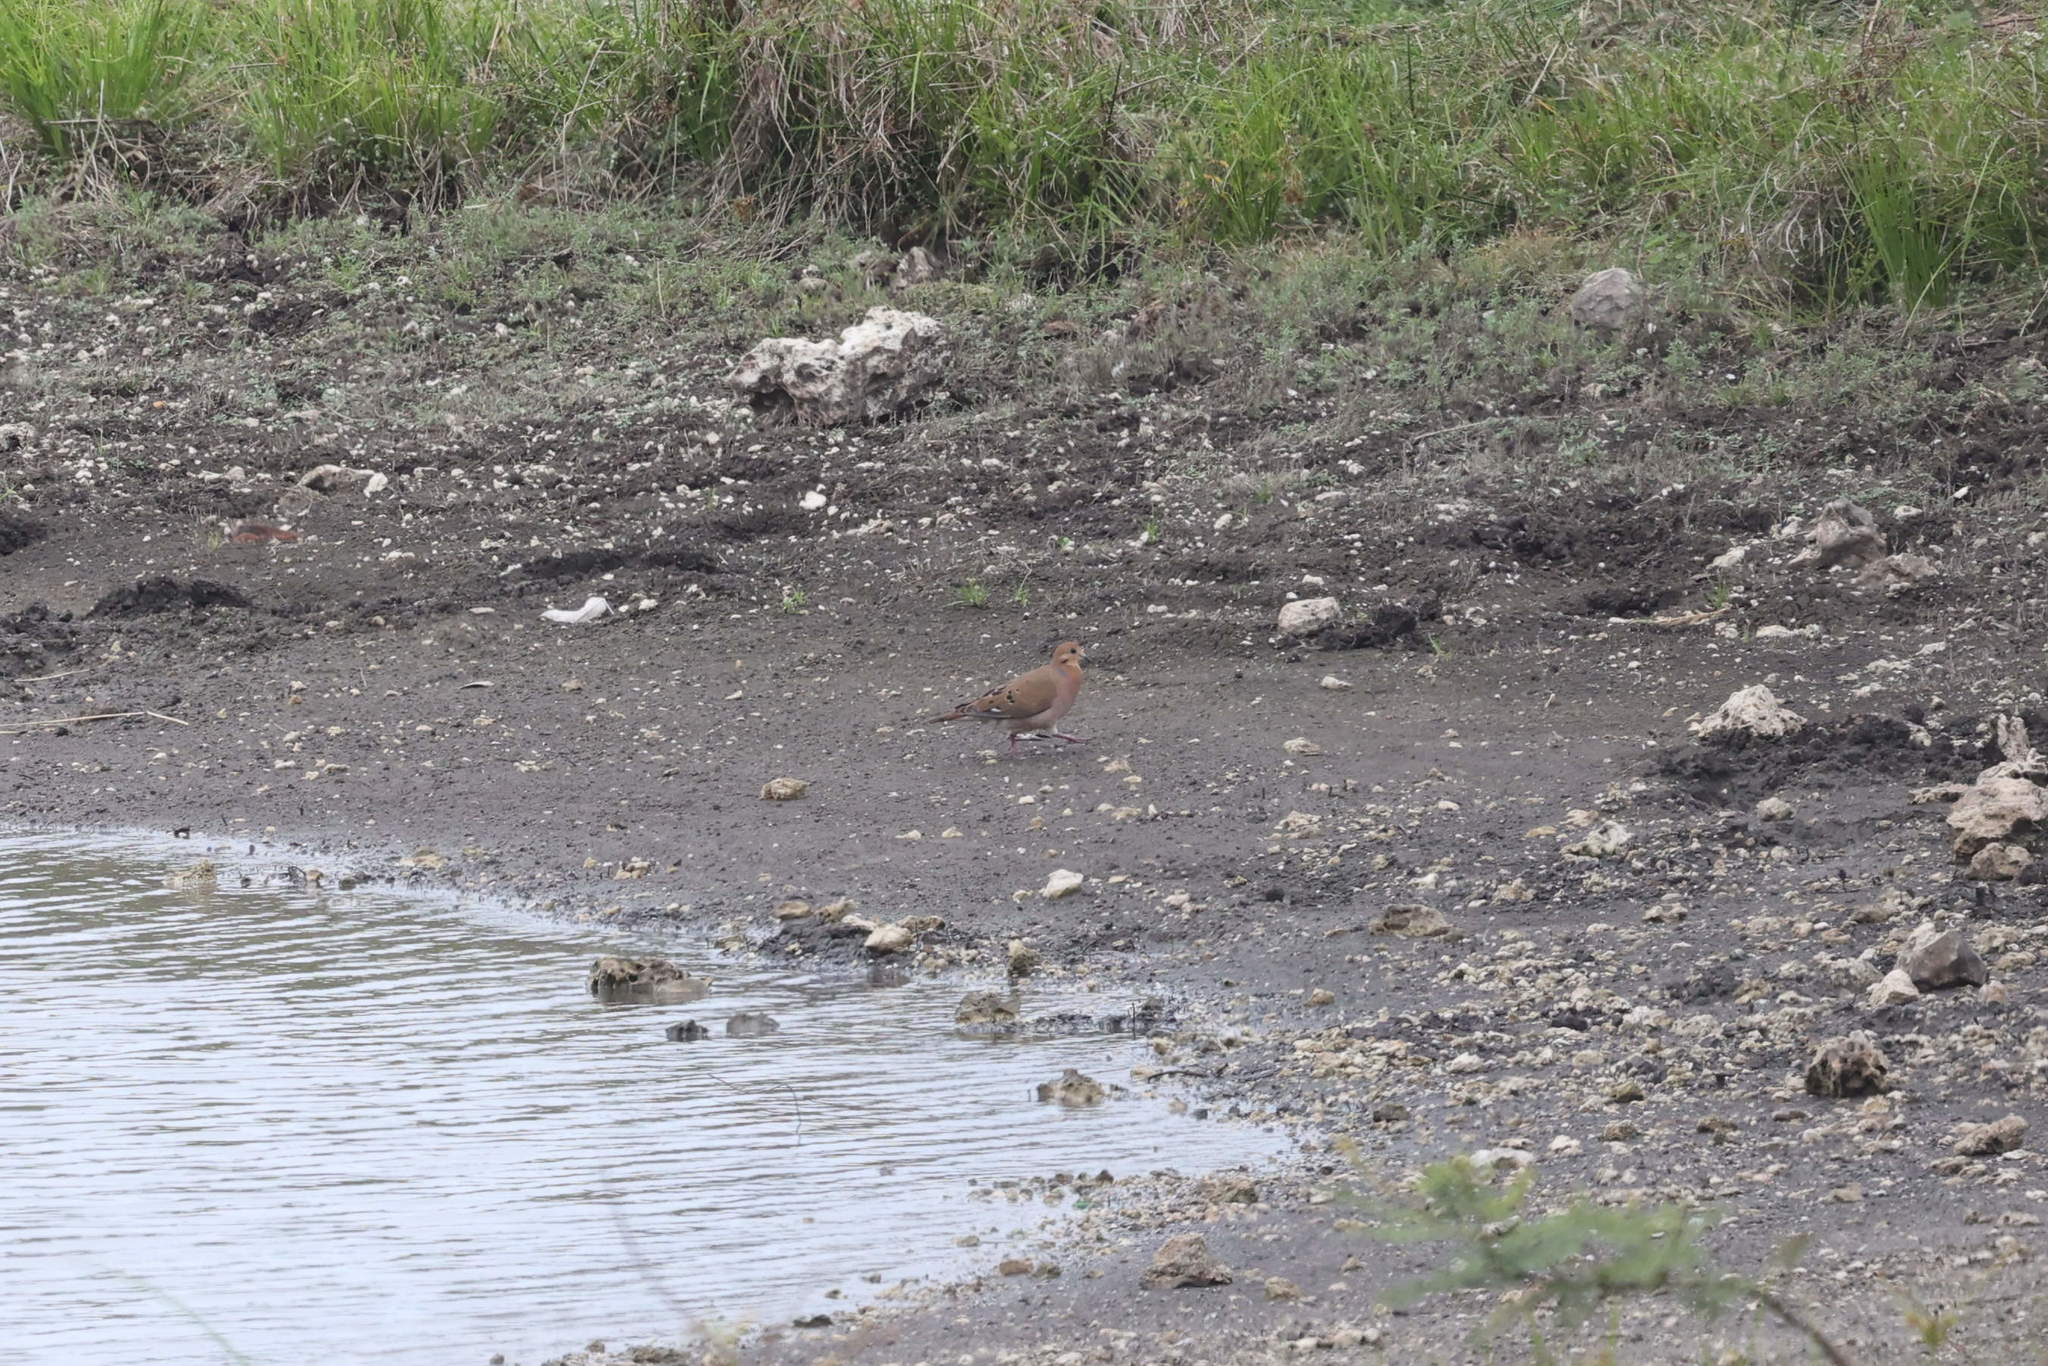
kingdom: Animalia
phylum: Chordata
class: Aves
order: Columbiformes
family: Columbidae
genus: Zenaida
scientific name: Zenaida aurita
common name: Zenaida dove
